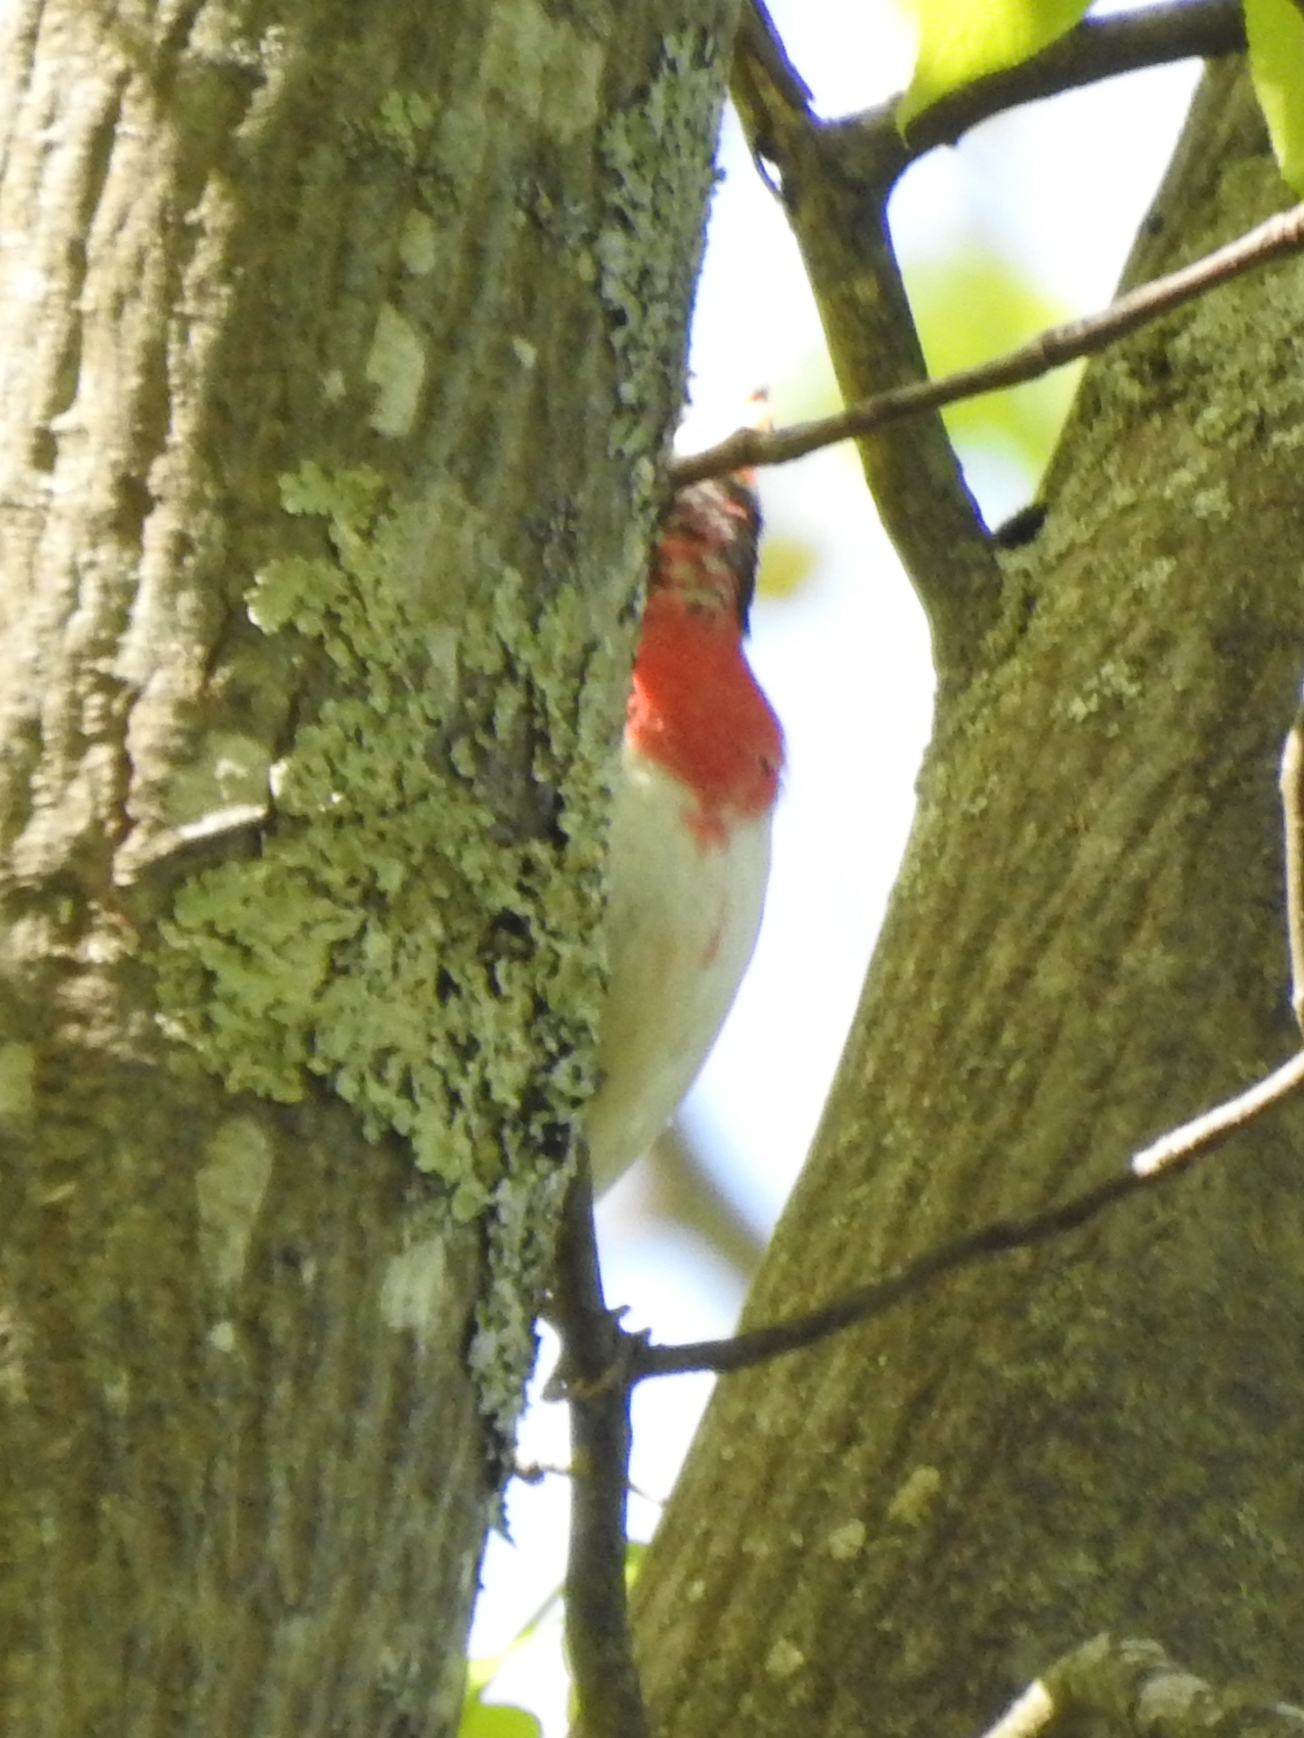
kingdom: Animalia
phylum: Chordata
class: Aves
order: Passeriformes
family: Cardinalidae
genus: Pheucticus
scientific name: Pheucticus ludovicianus
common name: Rose-breasted grosbeak
